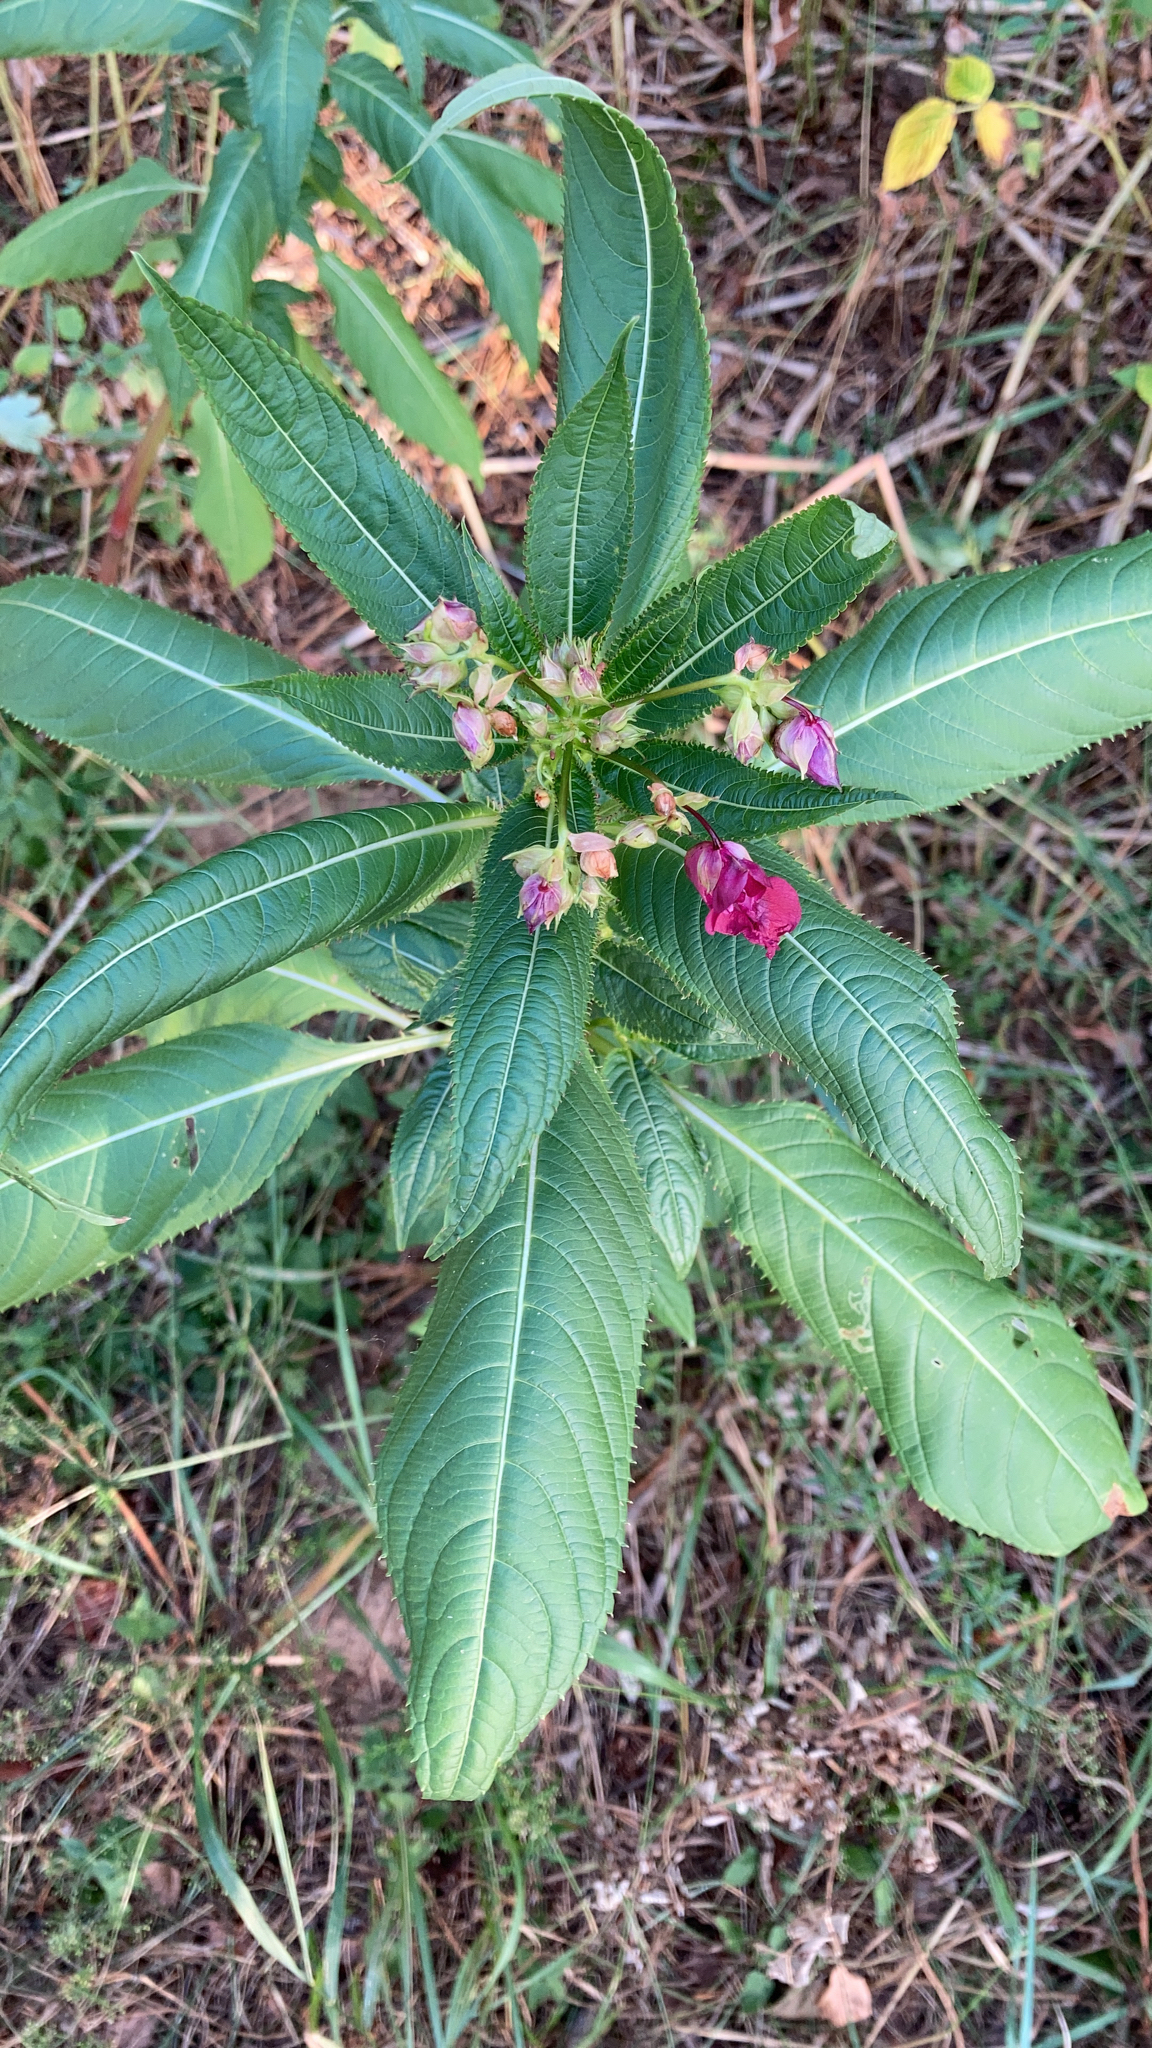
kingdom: Plantae
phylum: Tracheophyta
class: Magnoliopsida
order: Ericales
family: Balsaminaceae
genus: Impatiens
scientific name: Impatiens glandulifera
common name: Himalayan balsam
